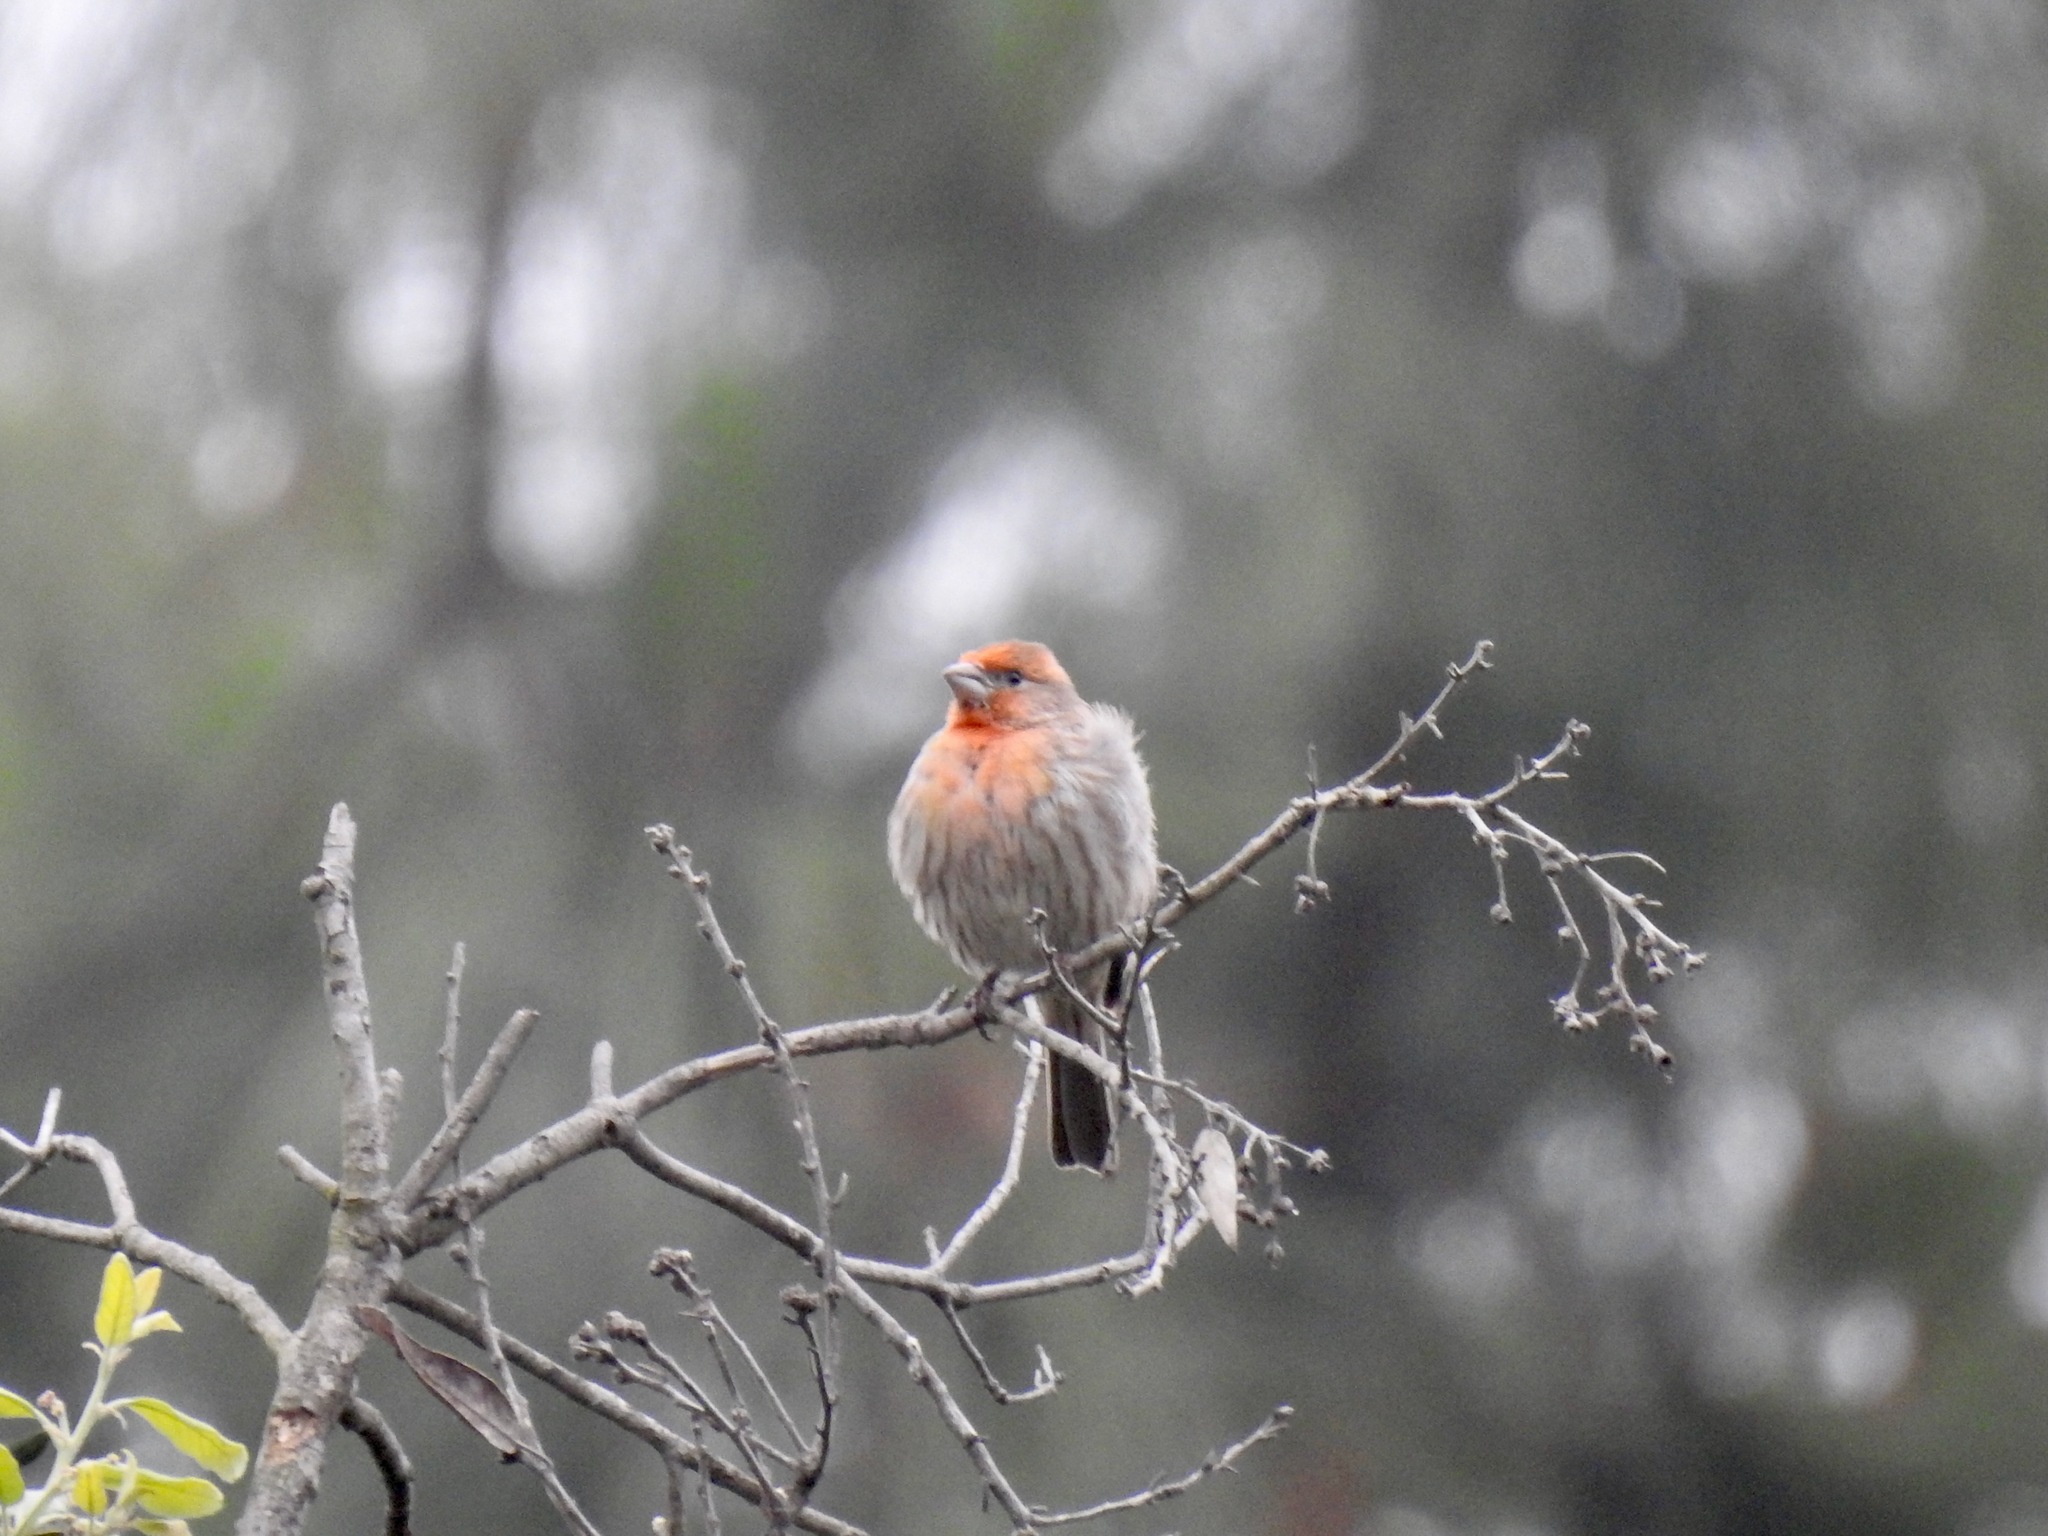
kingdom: Animalia
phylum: Chordata
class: Aves
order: Passeriformes
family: Fringillidae
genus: Haemorhous
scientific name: Haemorhous mexicanus
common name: House finch
